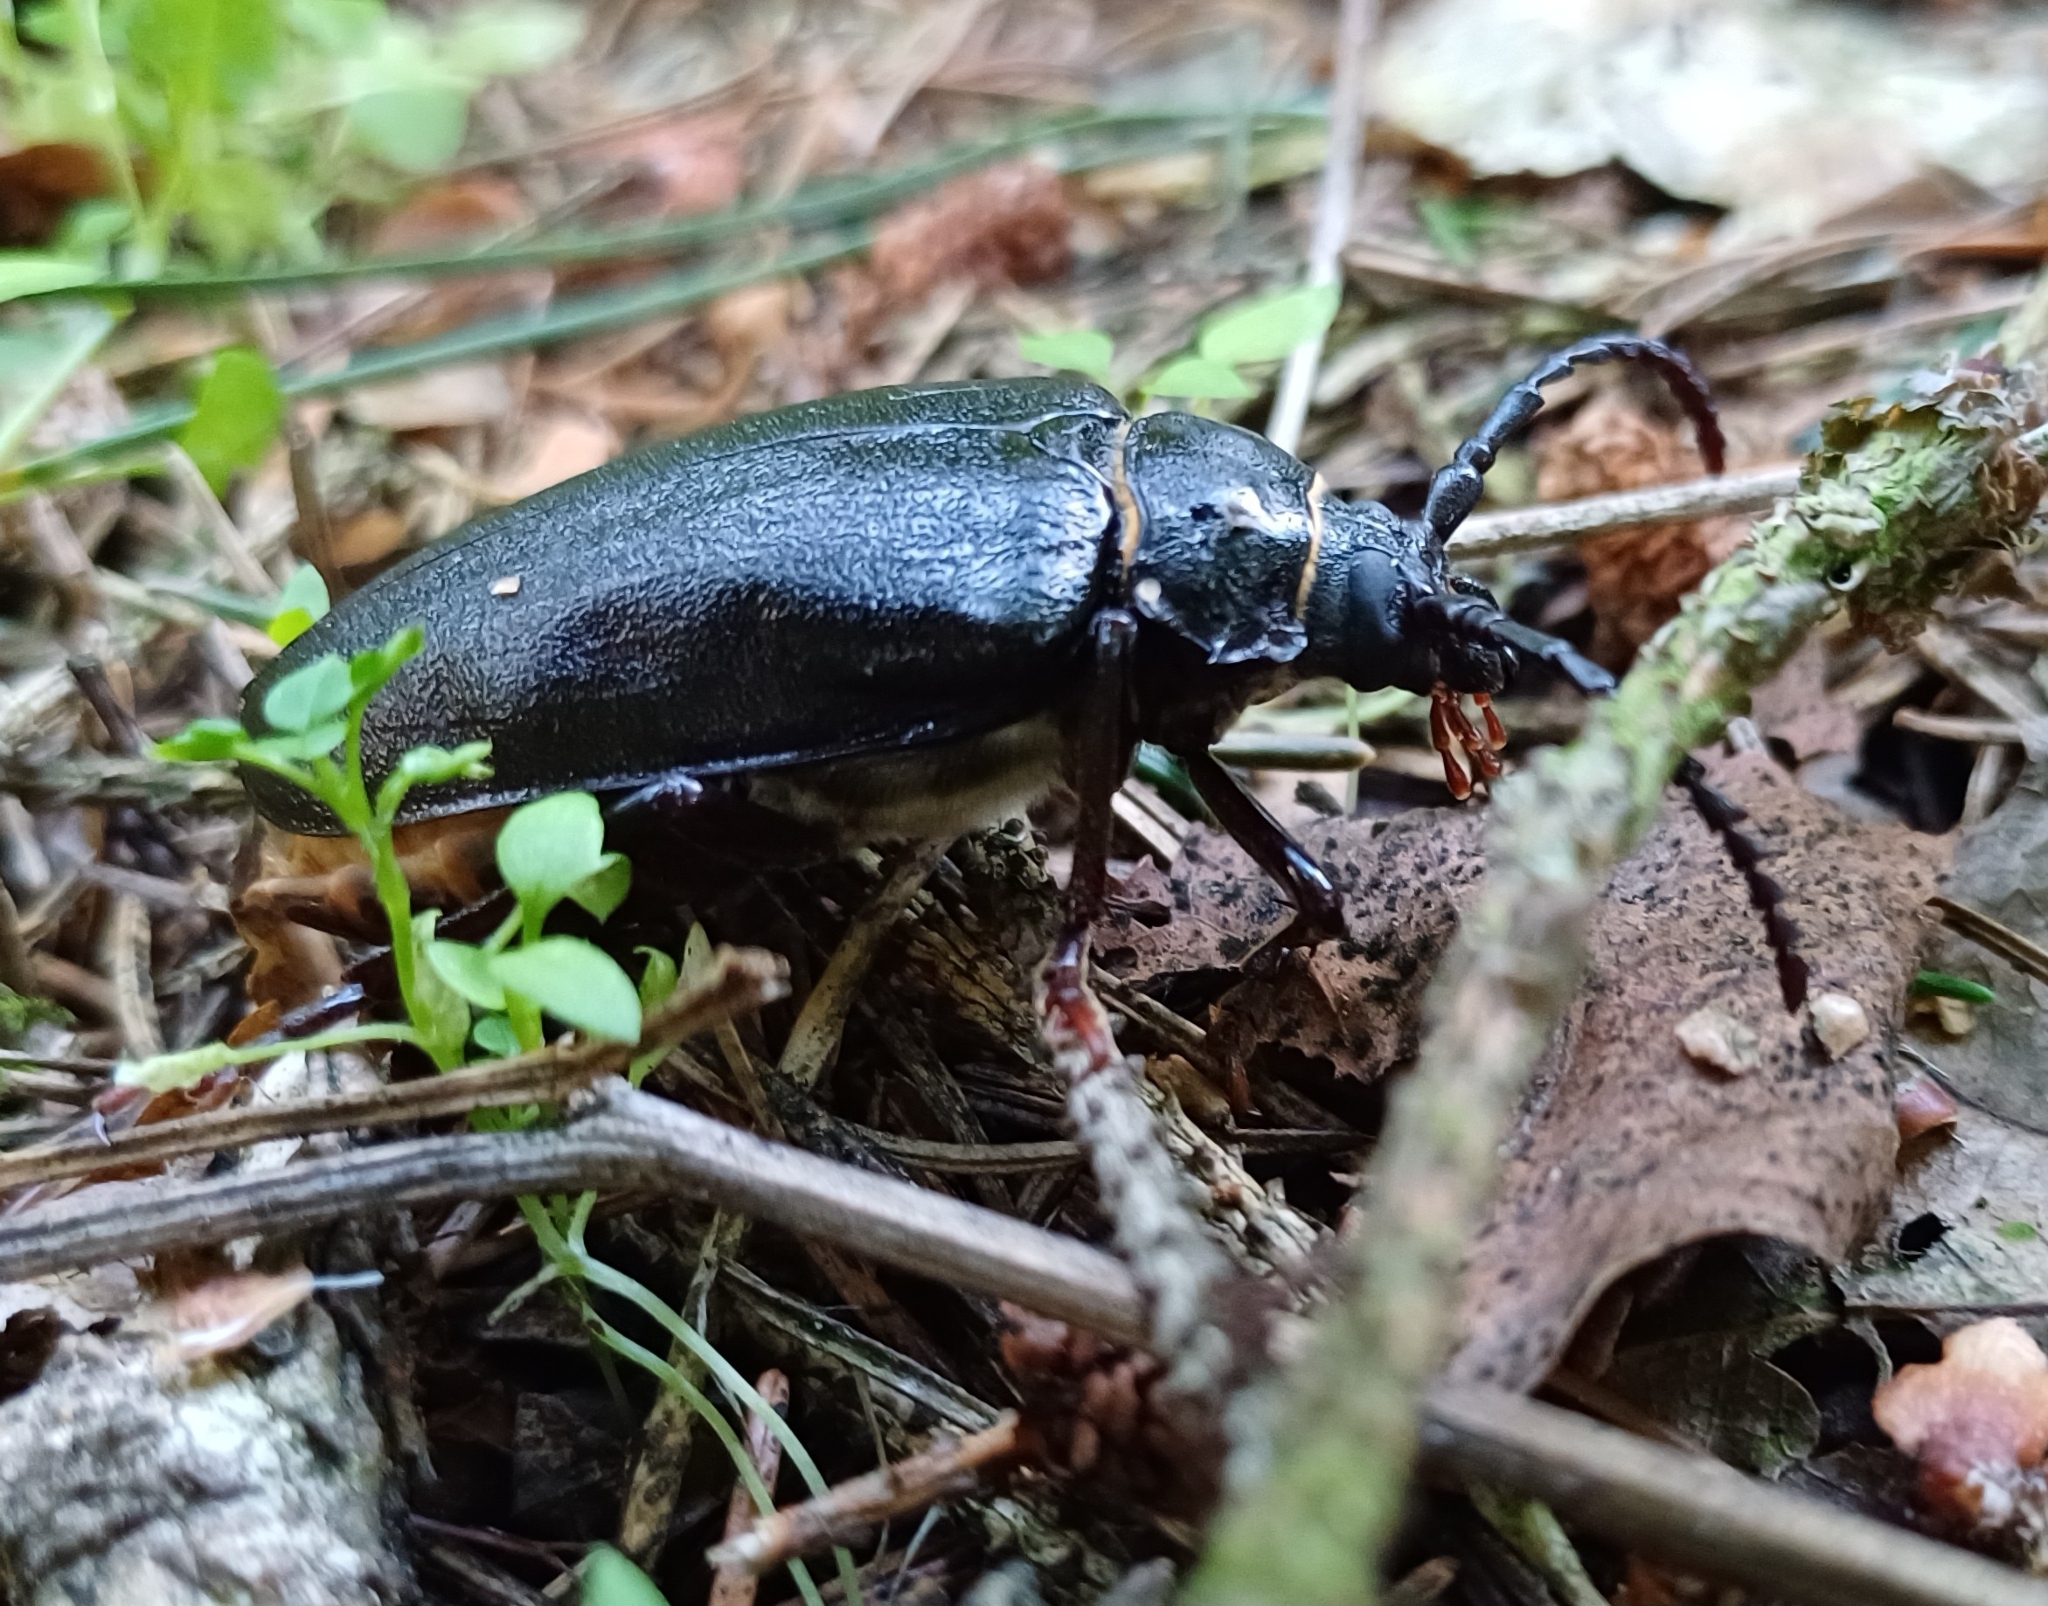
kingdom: Animalia
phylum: Arthropoda
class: Insecta
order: Coleoptera
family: Cerambycidae
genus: Prionus
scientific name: Prionus coriarius
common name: Tanner beetle
